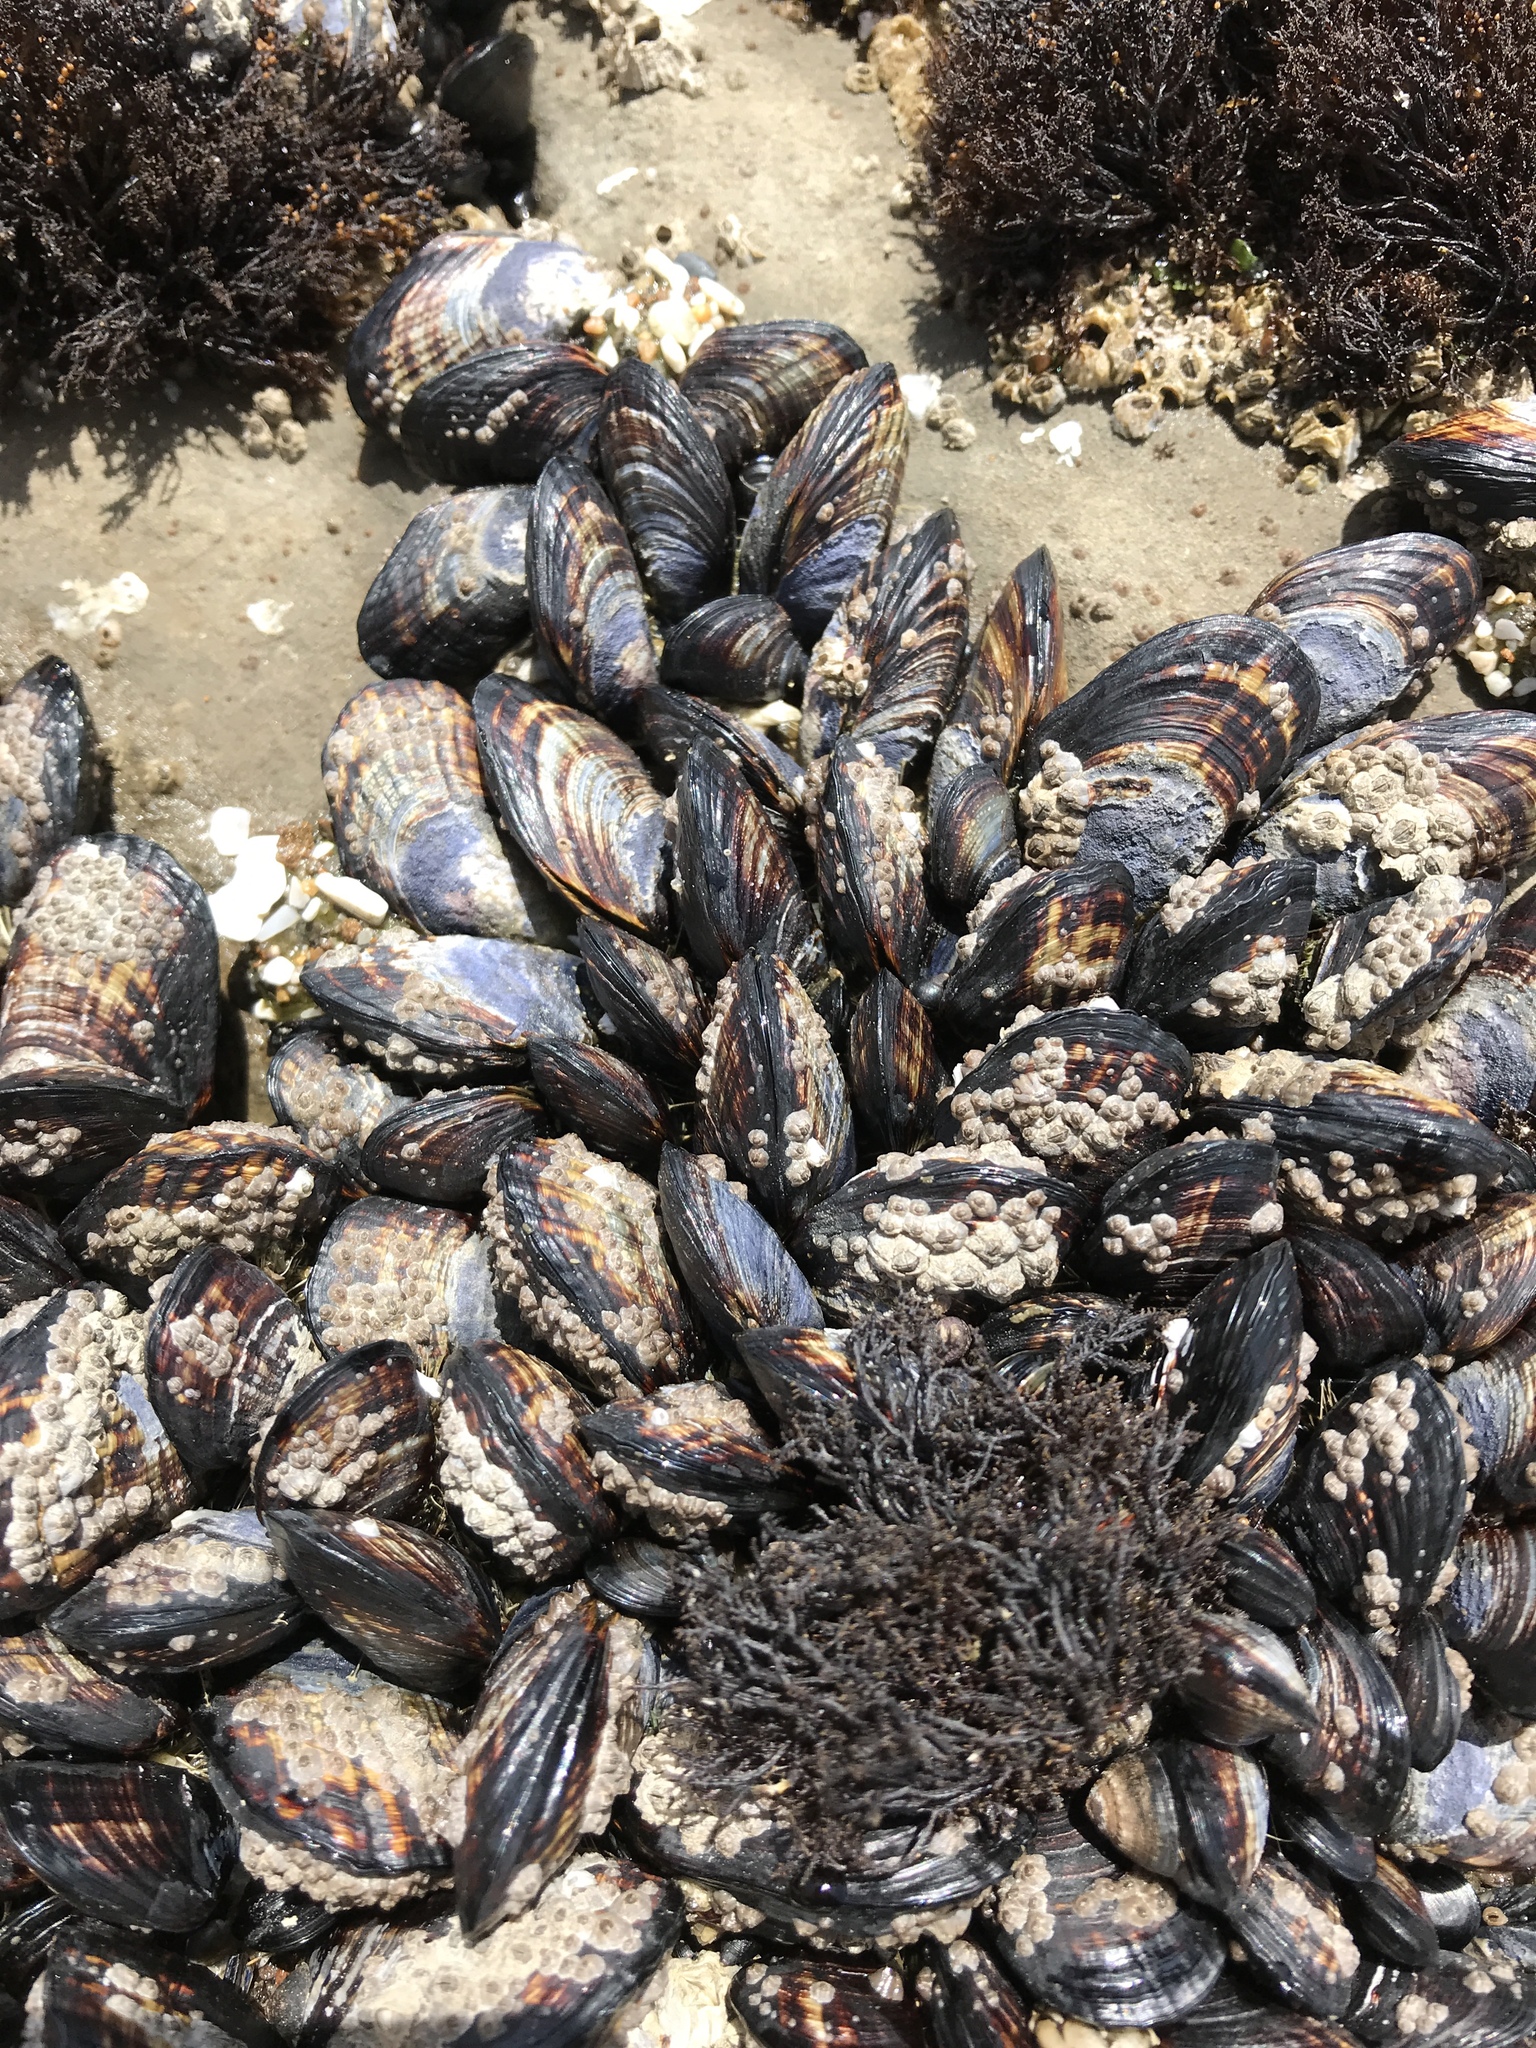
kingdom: Animalia
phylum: Mollusca
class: Bivalvia
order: Mytilida
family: Mytilidae
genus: Mytilus
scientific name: Mytilus californianus
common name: California mussel
